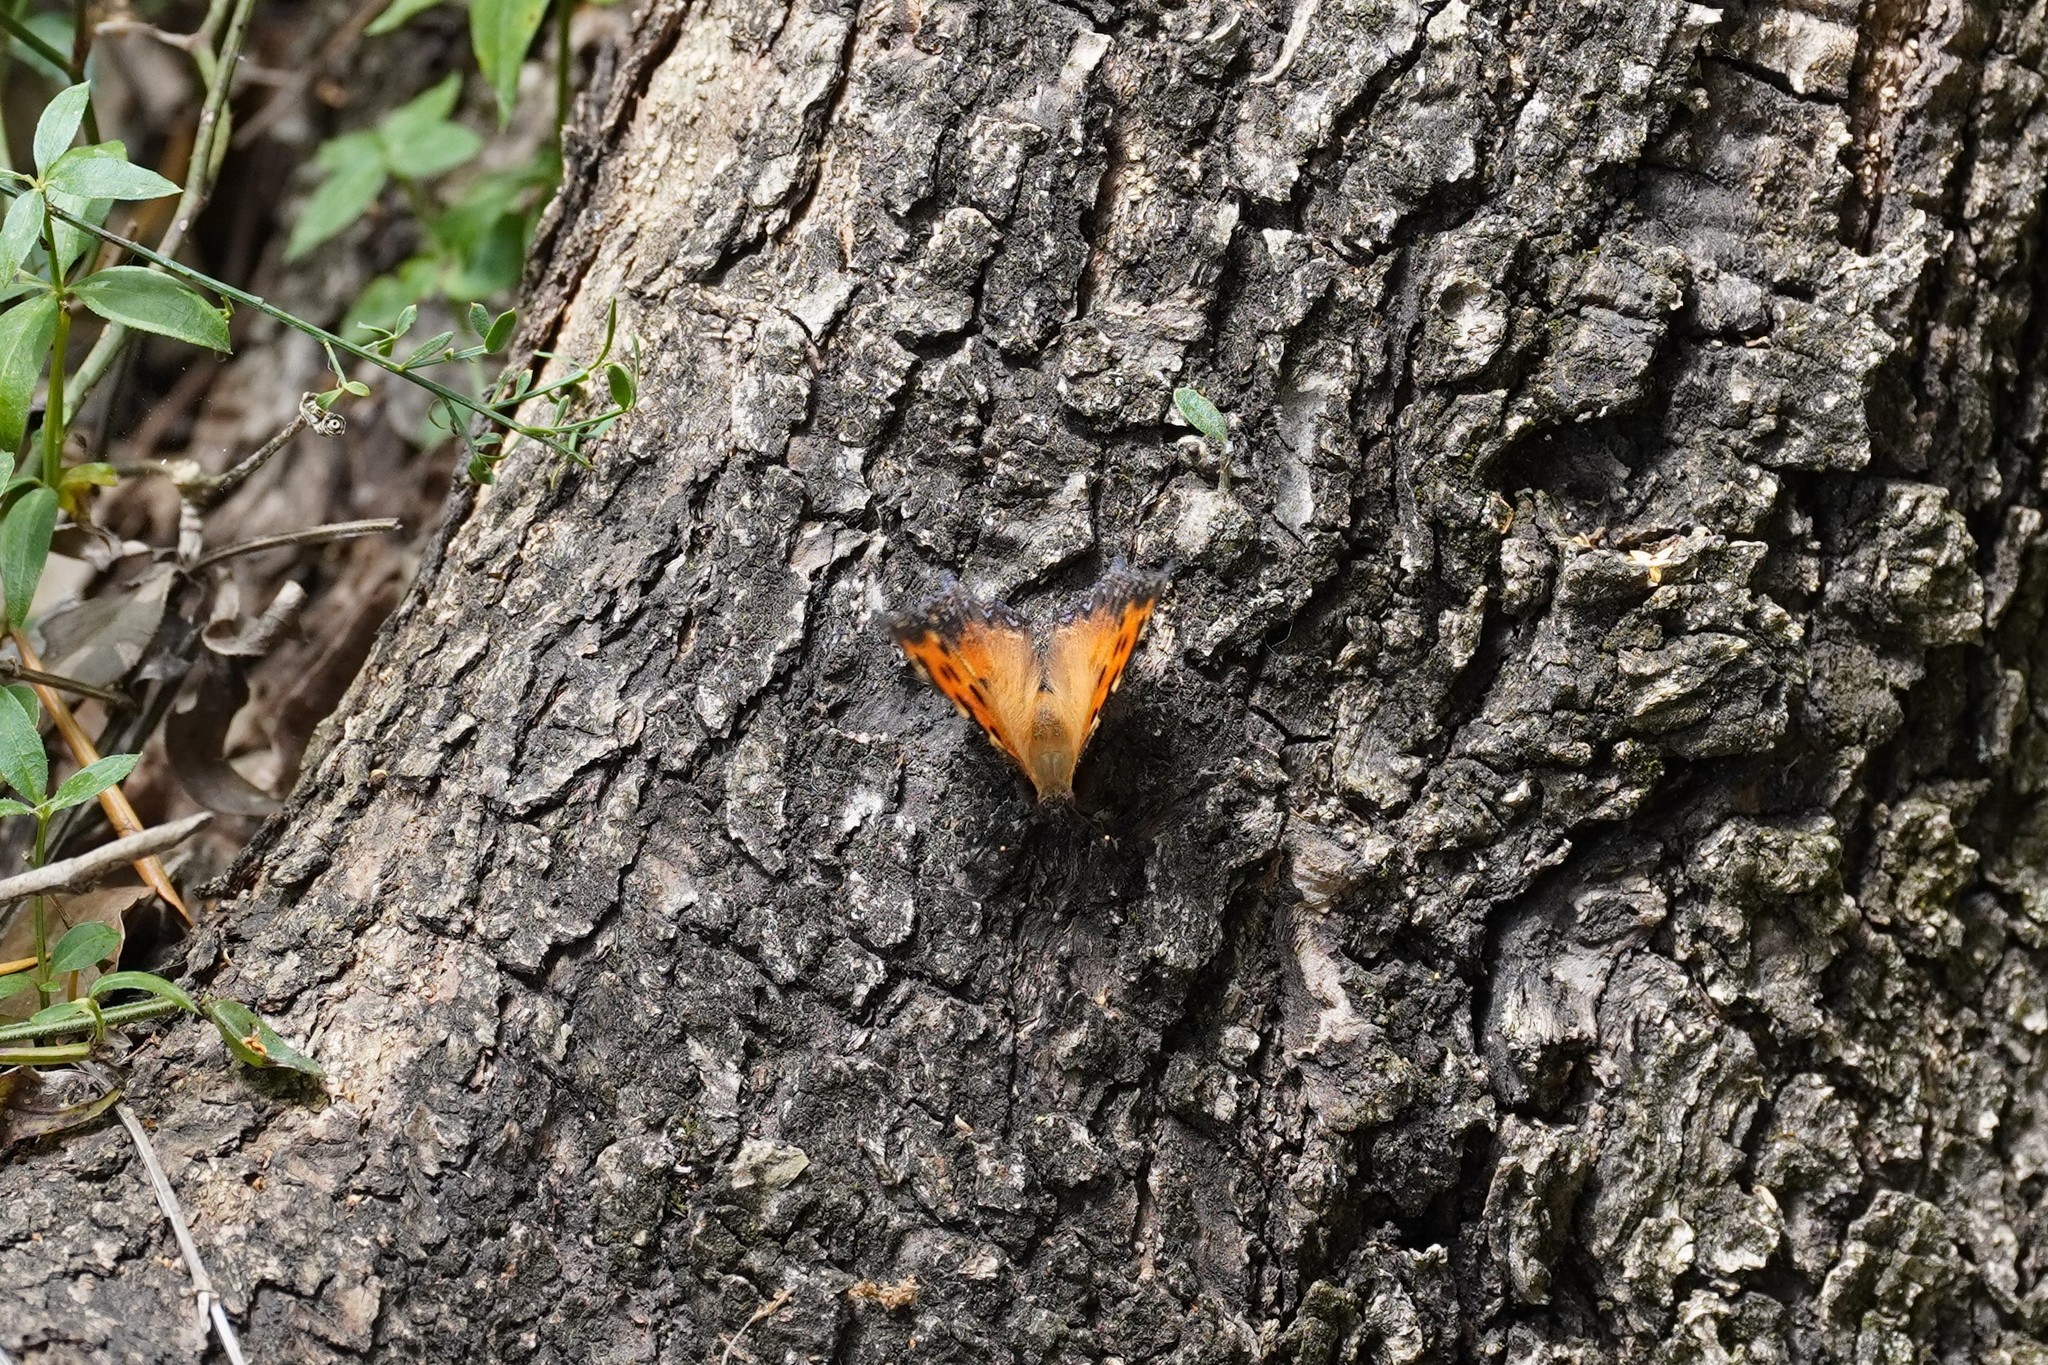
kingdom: Animalia
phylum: Arthropoda
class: Insecta
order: Lepidoptera
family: Nymphalidae
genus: Nymphalis
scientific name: Nymphalis polychloros
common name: Large tortoiseshell
